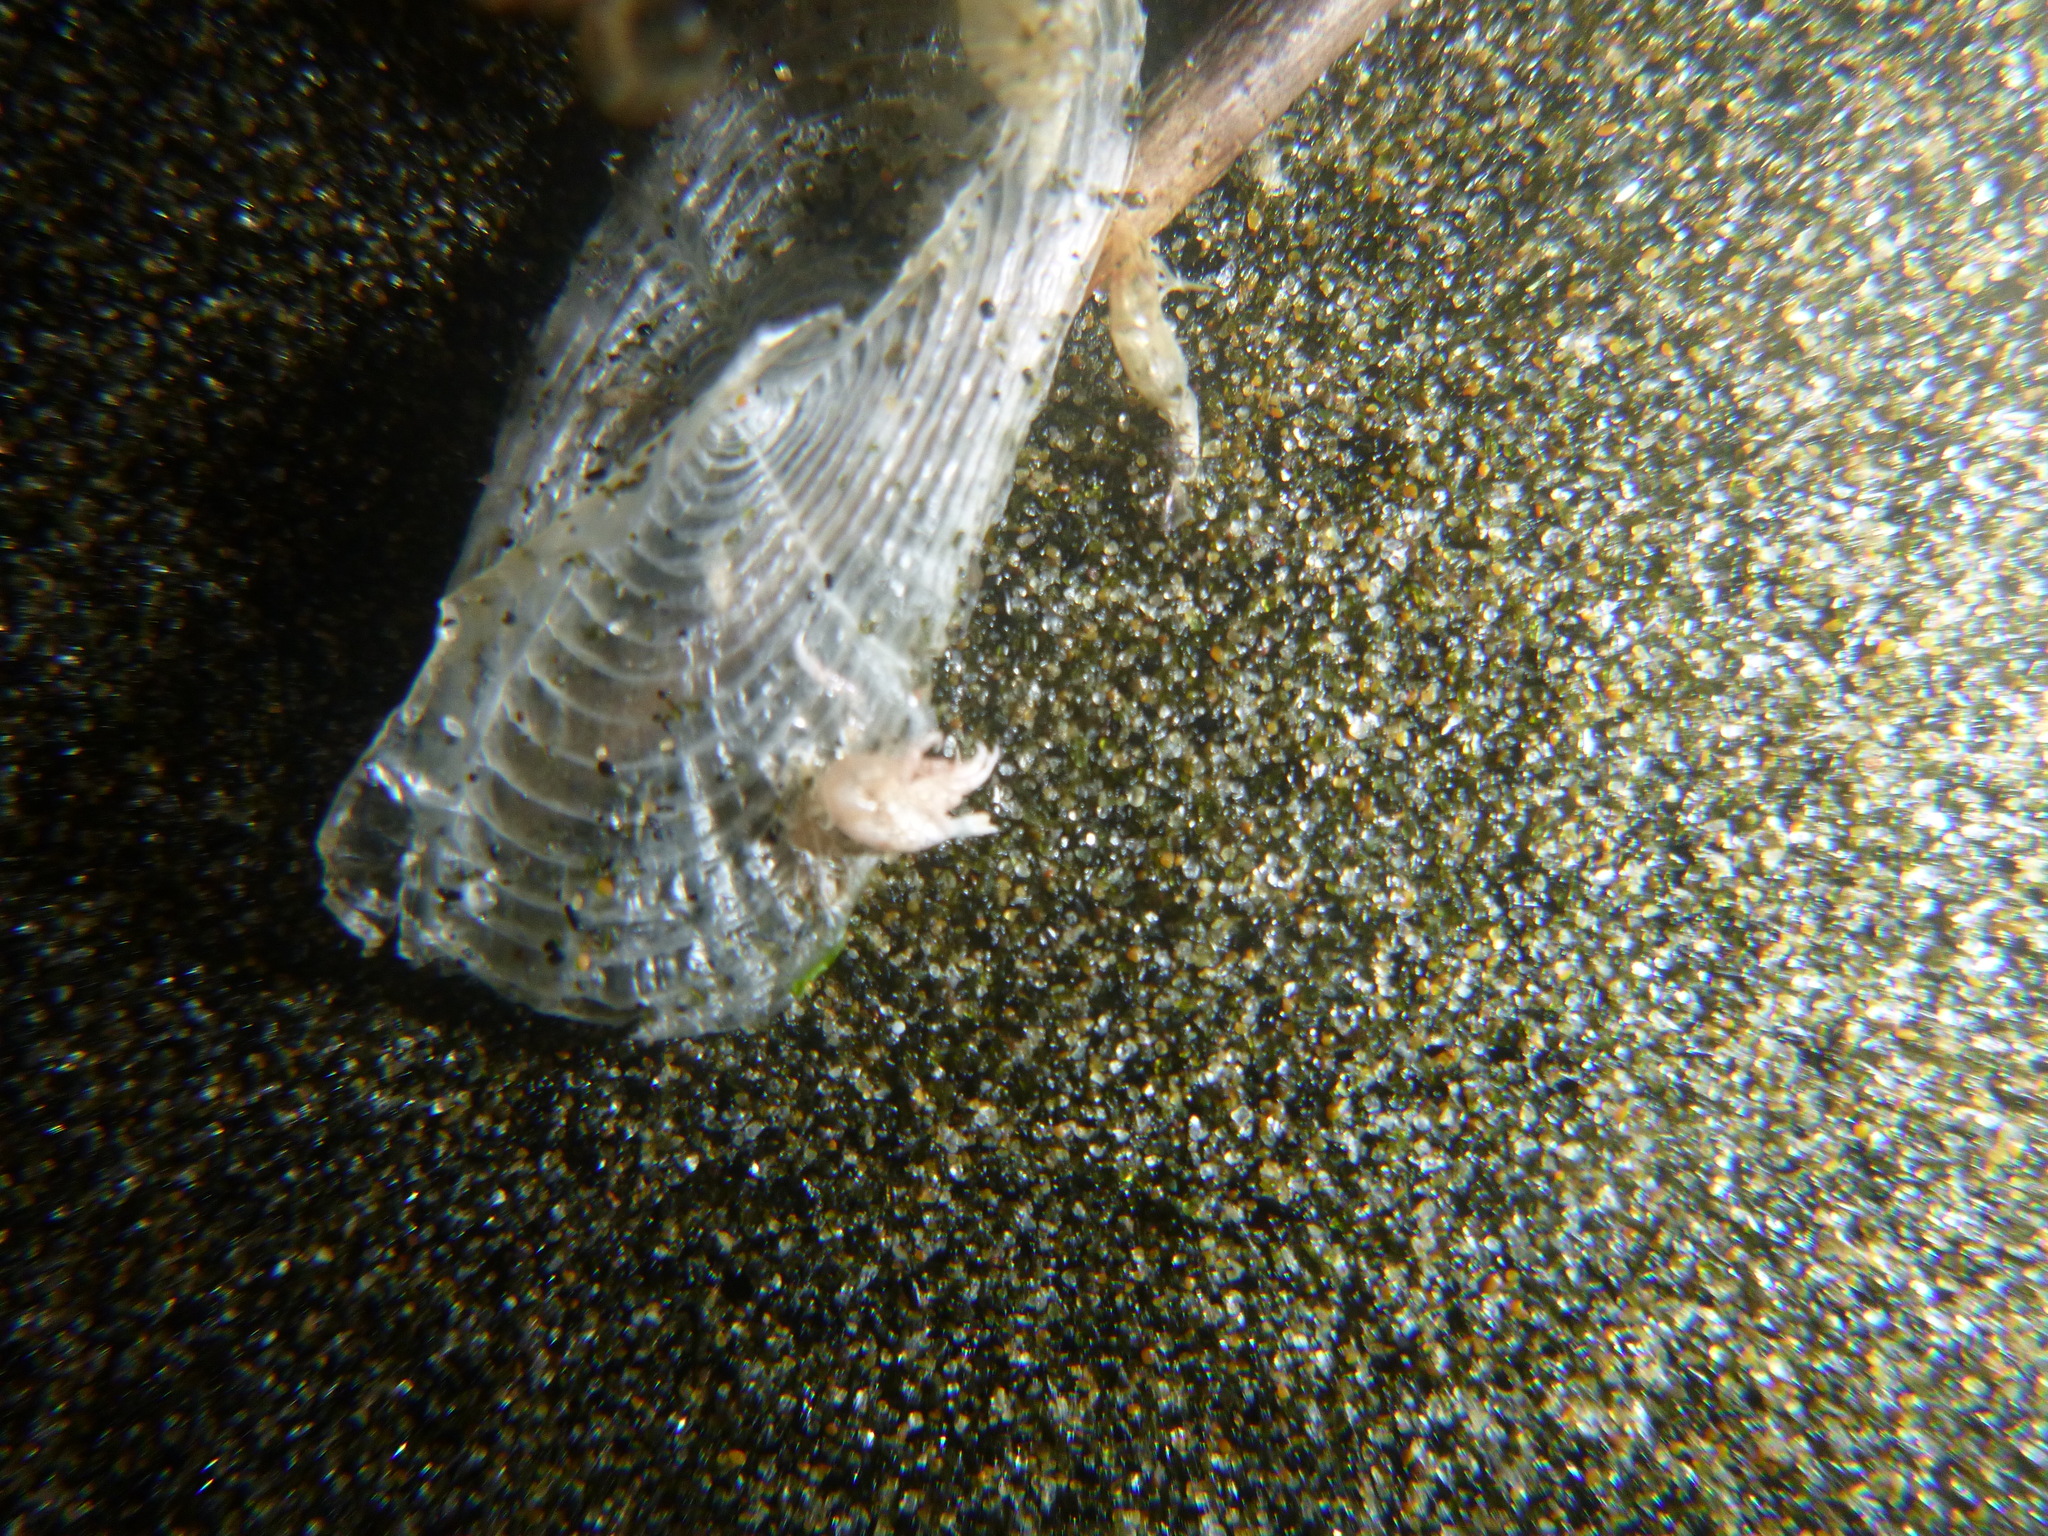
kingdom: Animalia
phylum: Cnidaria
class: Hydrozoa
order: Anthoathecata
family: Porpitidae
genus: Velella
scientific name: Velella velella
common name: By-the-wind-sailor
